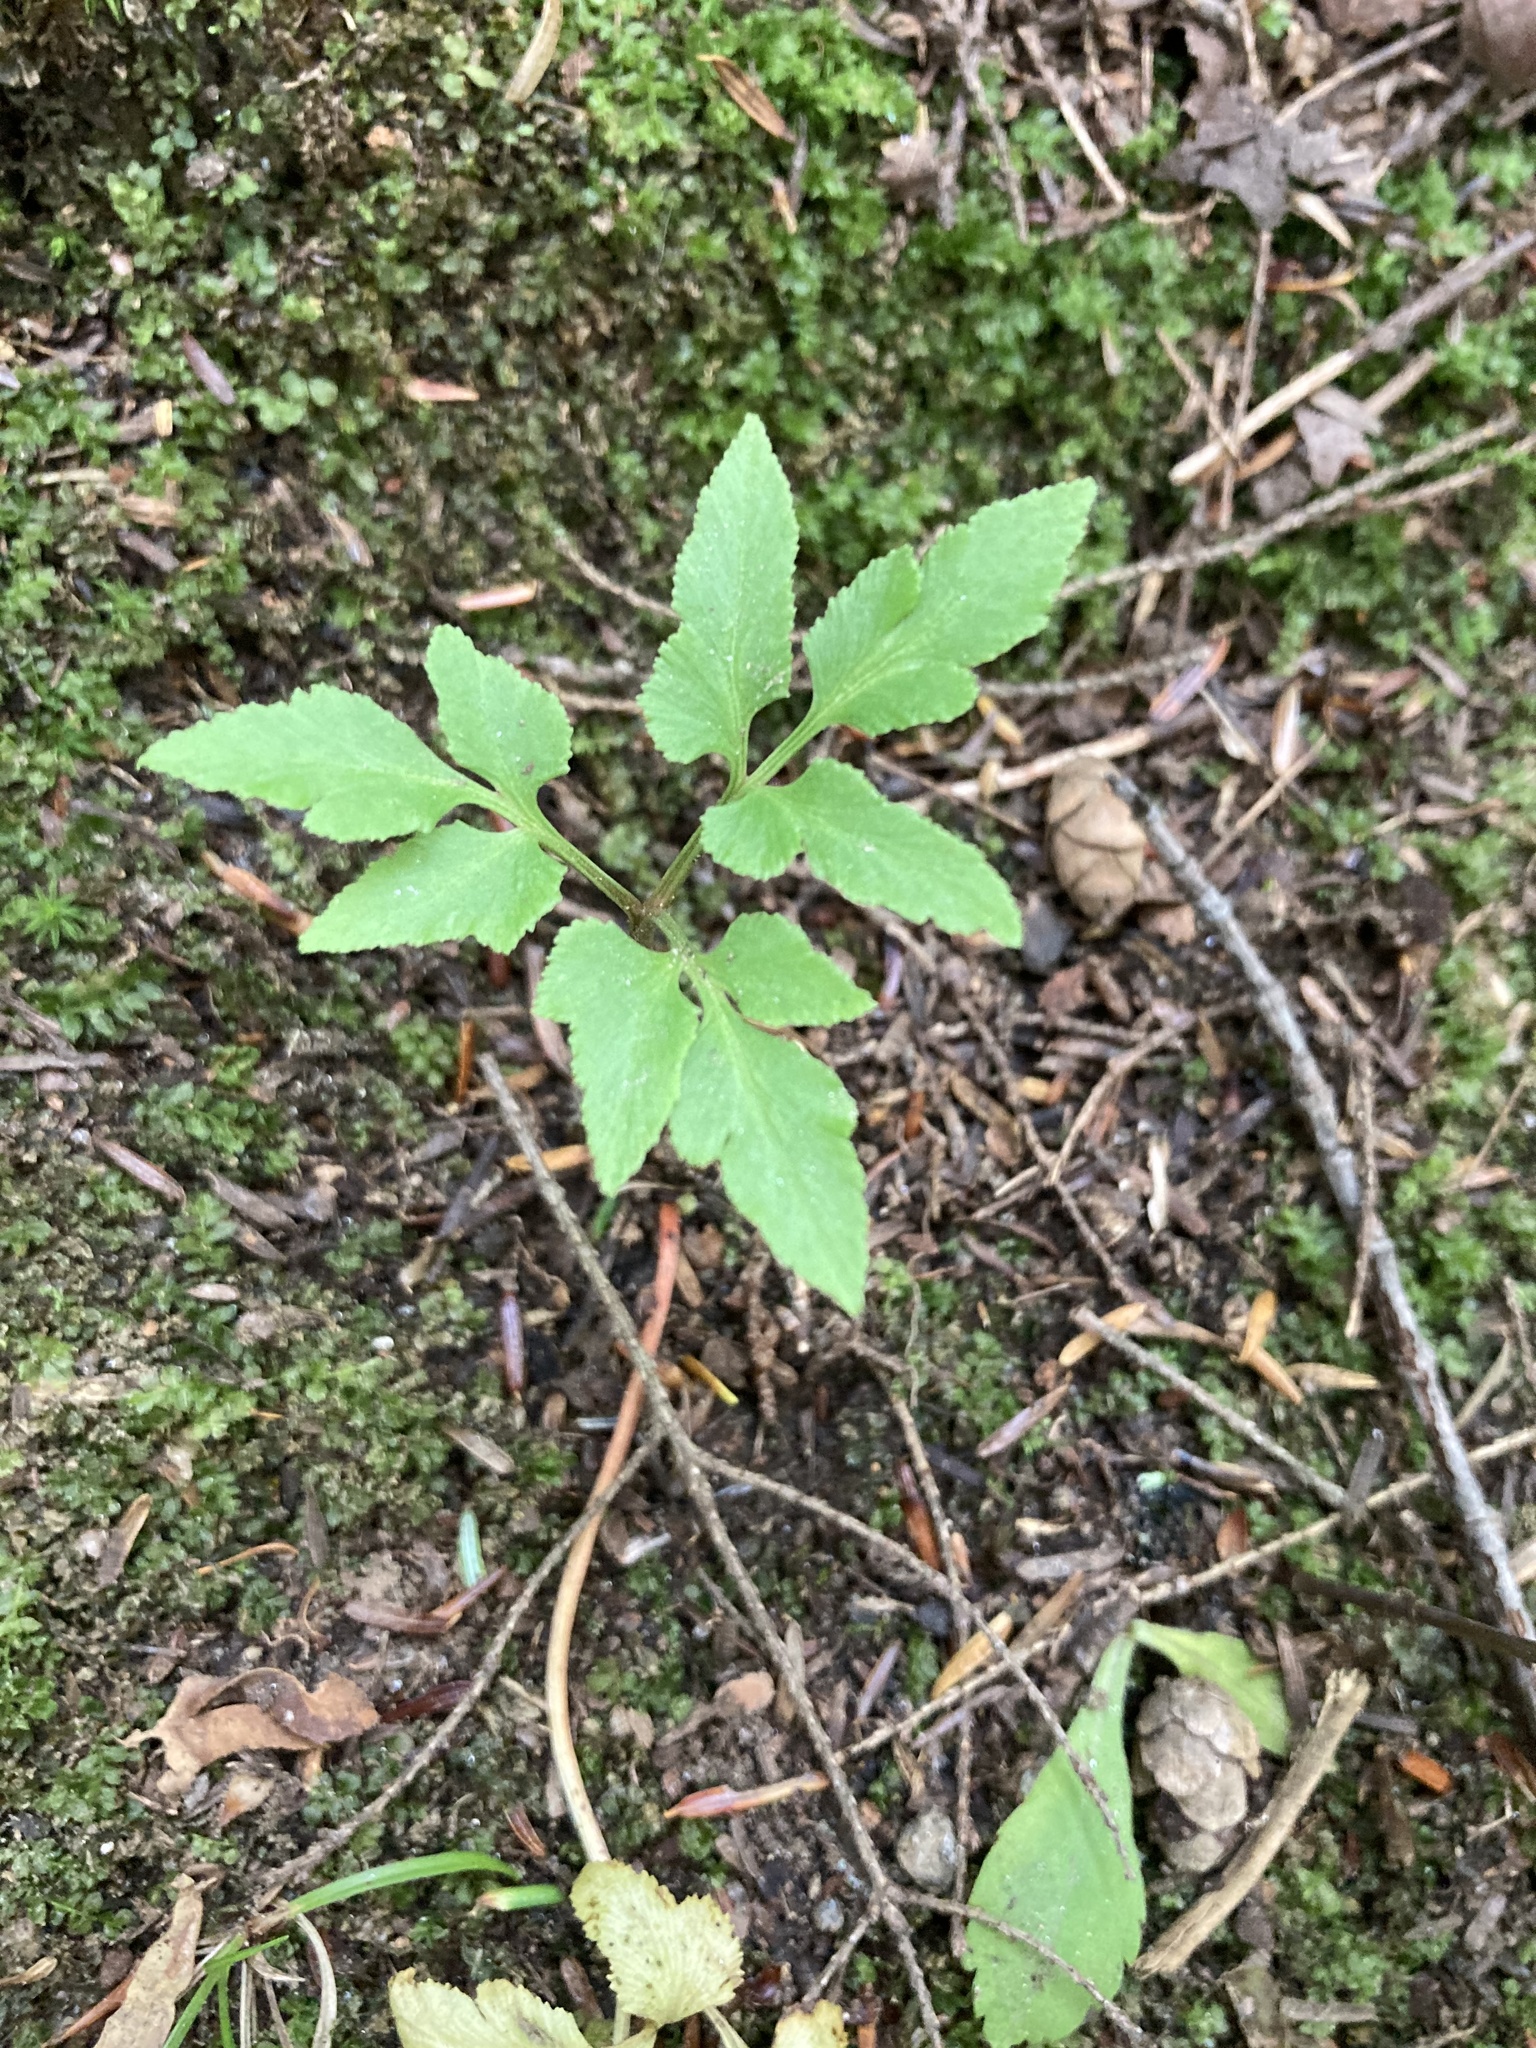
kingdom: Plantae
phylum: Tracheophyta
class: Polypodiopsida
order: Ophioglossales
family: Ophioglossaceae
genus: Sceptridium
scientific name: Sceptridium dissectum
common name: Cut-leaved grapefern
